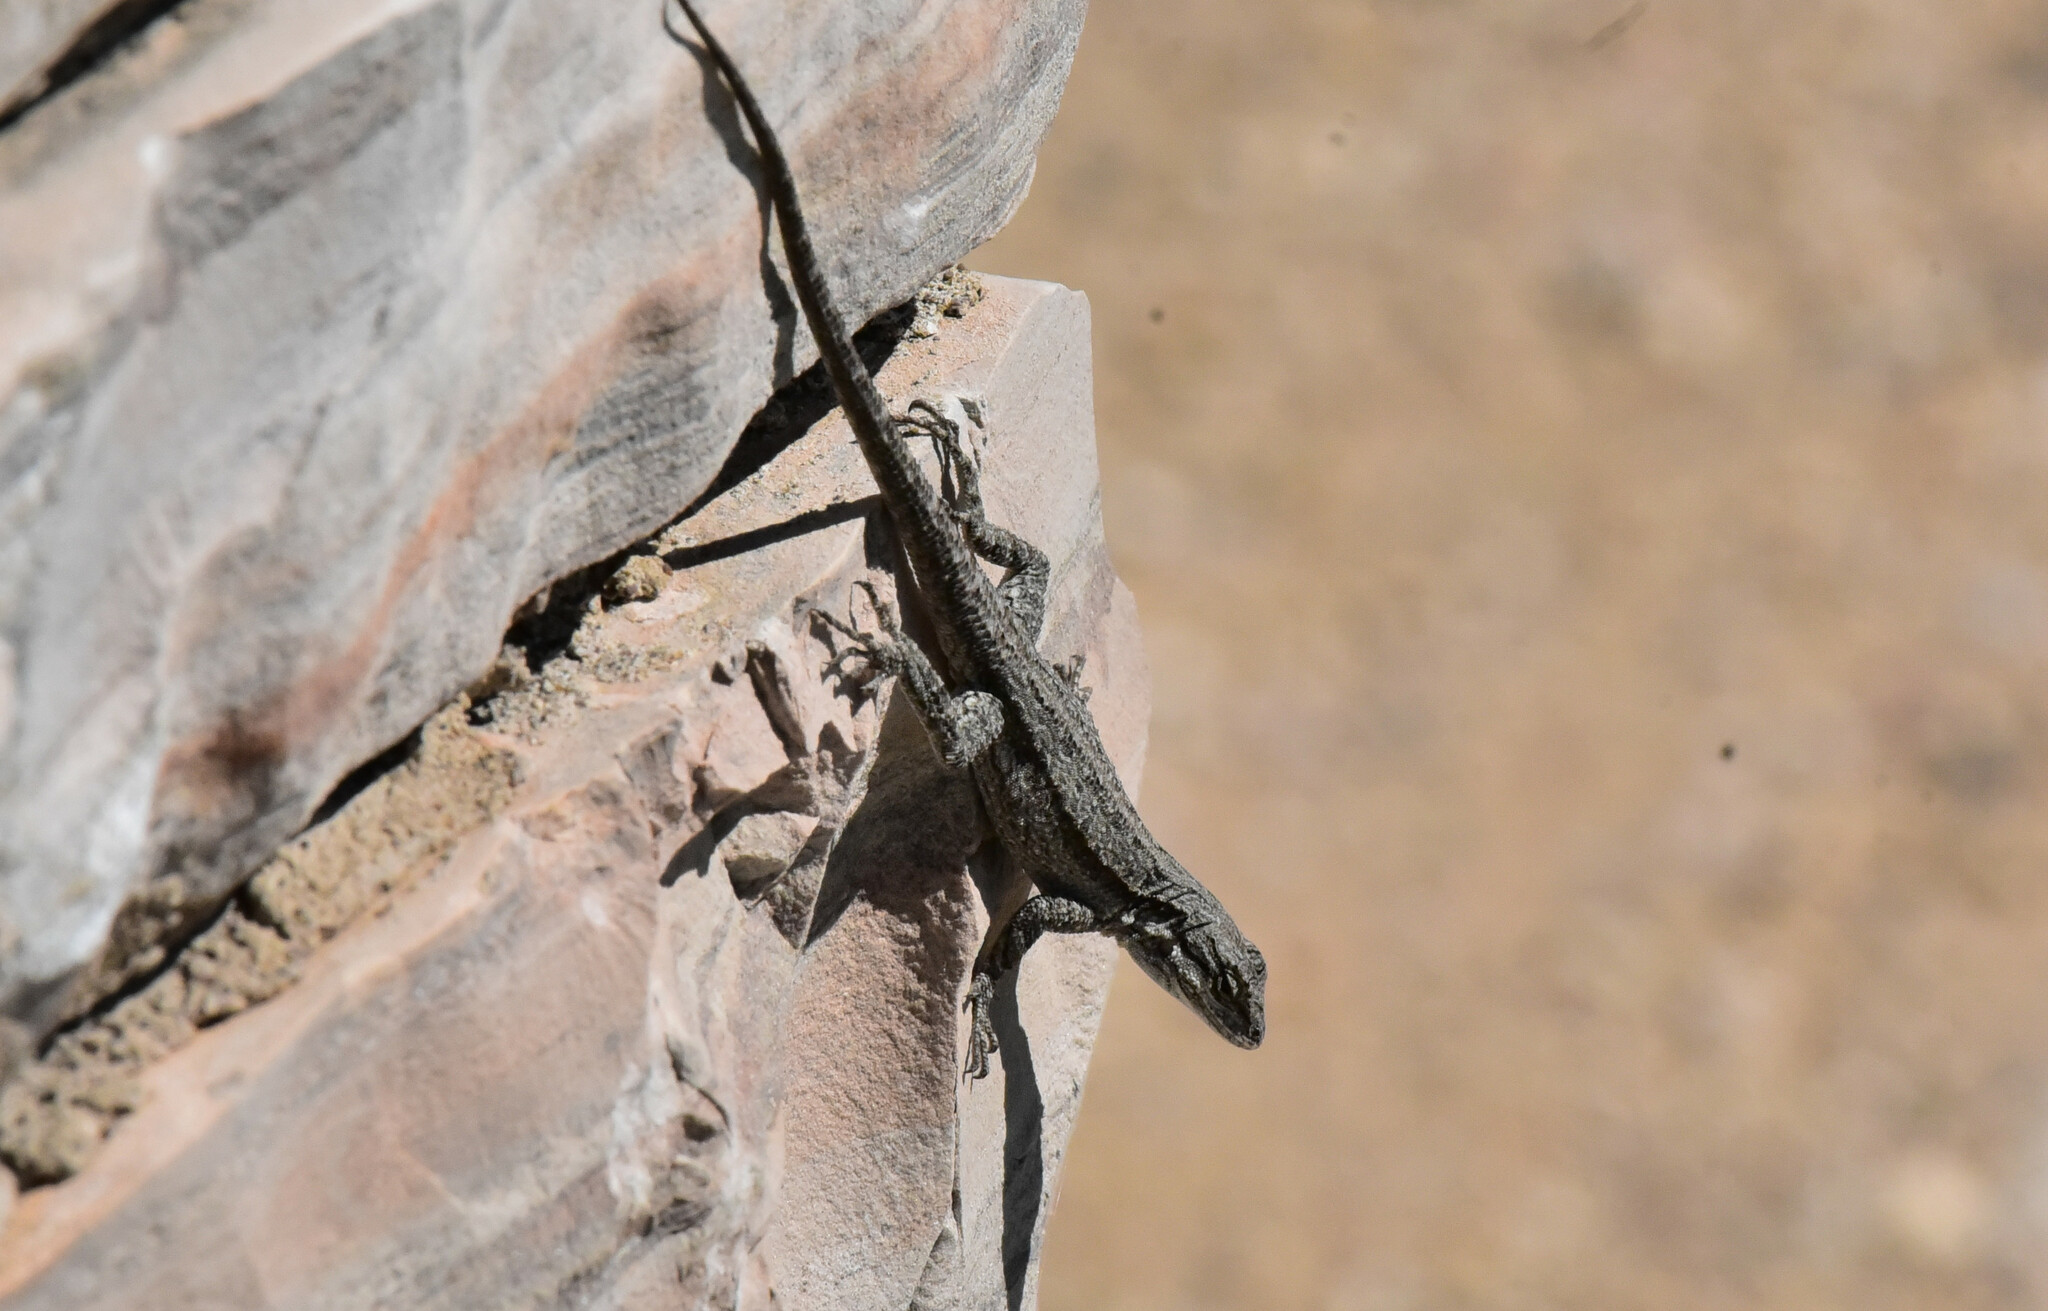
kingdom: Animalia
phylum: Chordata
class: Squamata
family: Phrynosomatidae
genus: Urosaurus
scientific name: Urosaurus ornatus
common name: Ornate tree lizard
